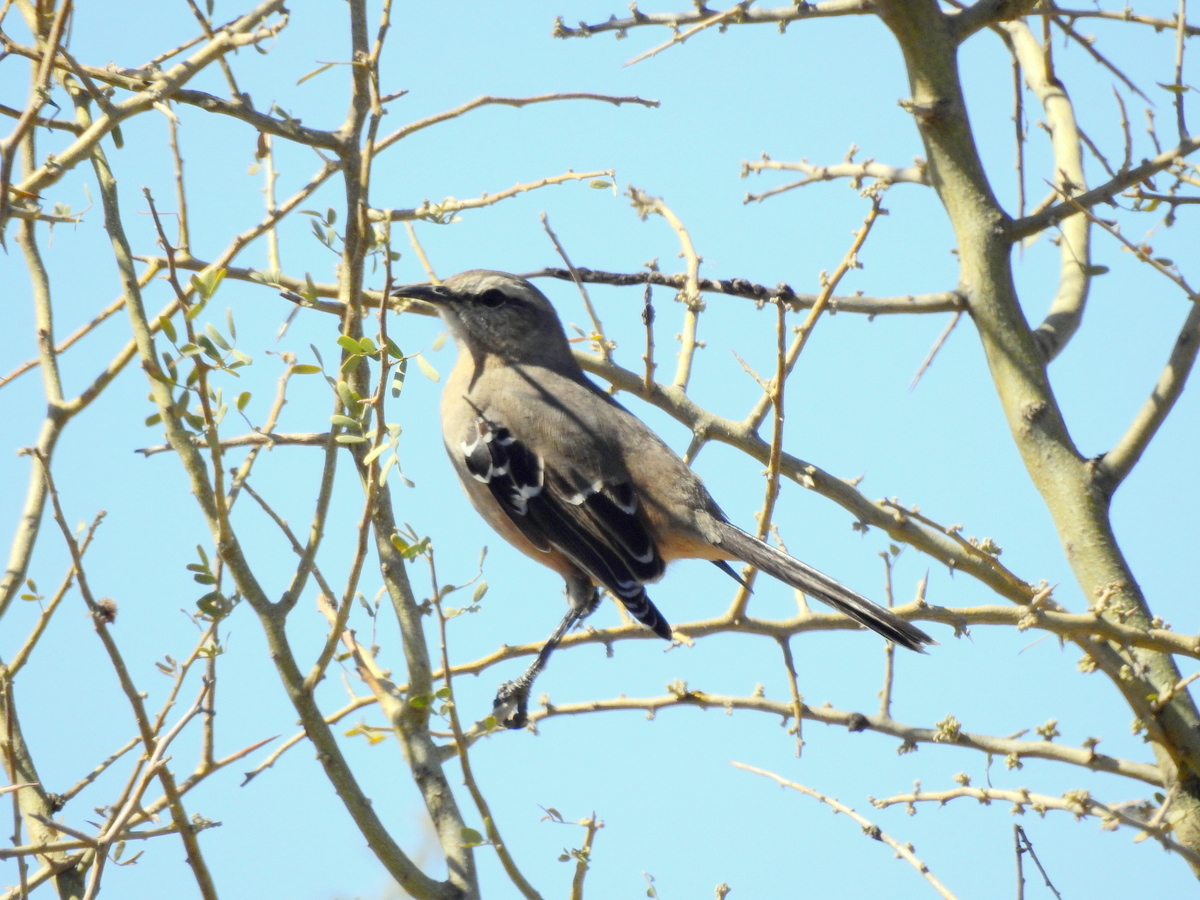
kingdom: Animalia
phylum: Chordata
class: Aves
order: Passeriformes
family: Mimidae
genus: Mimus
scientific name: Mimus patagonicus
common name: Patagonian mockingbird
